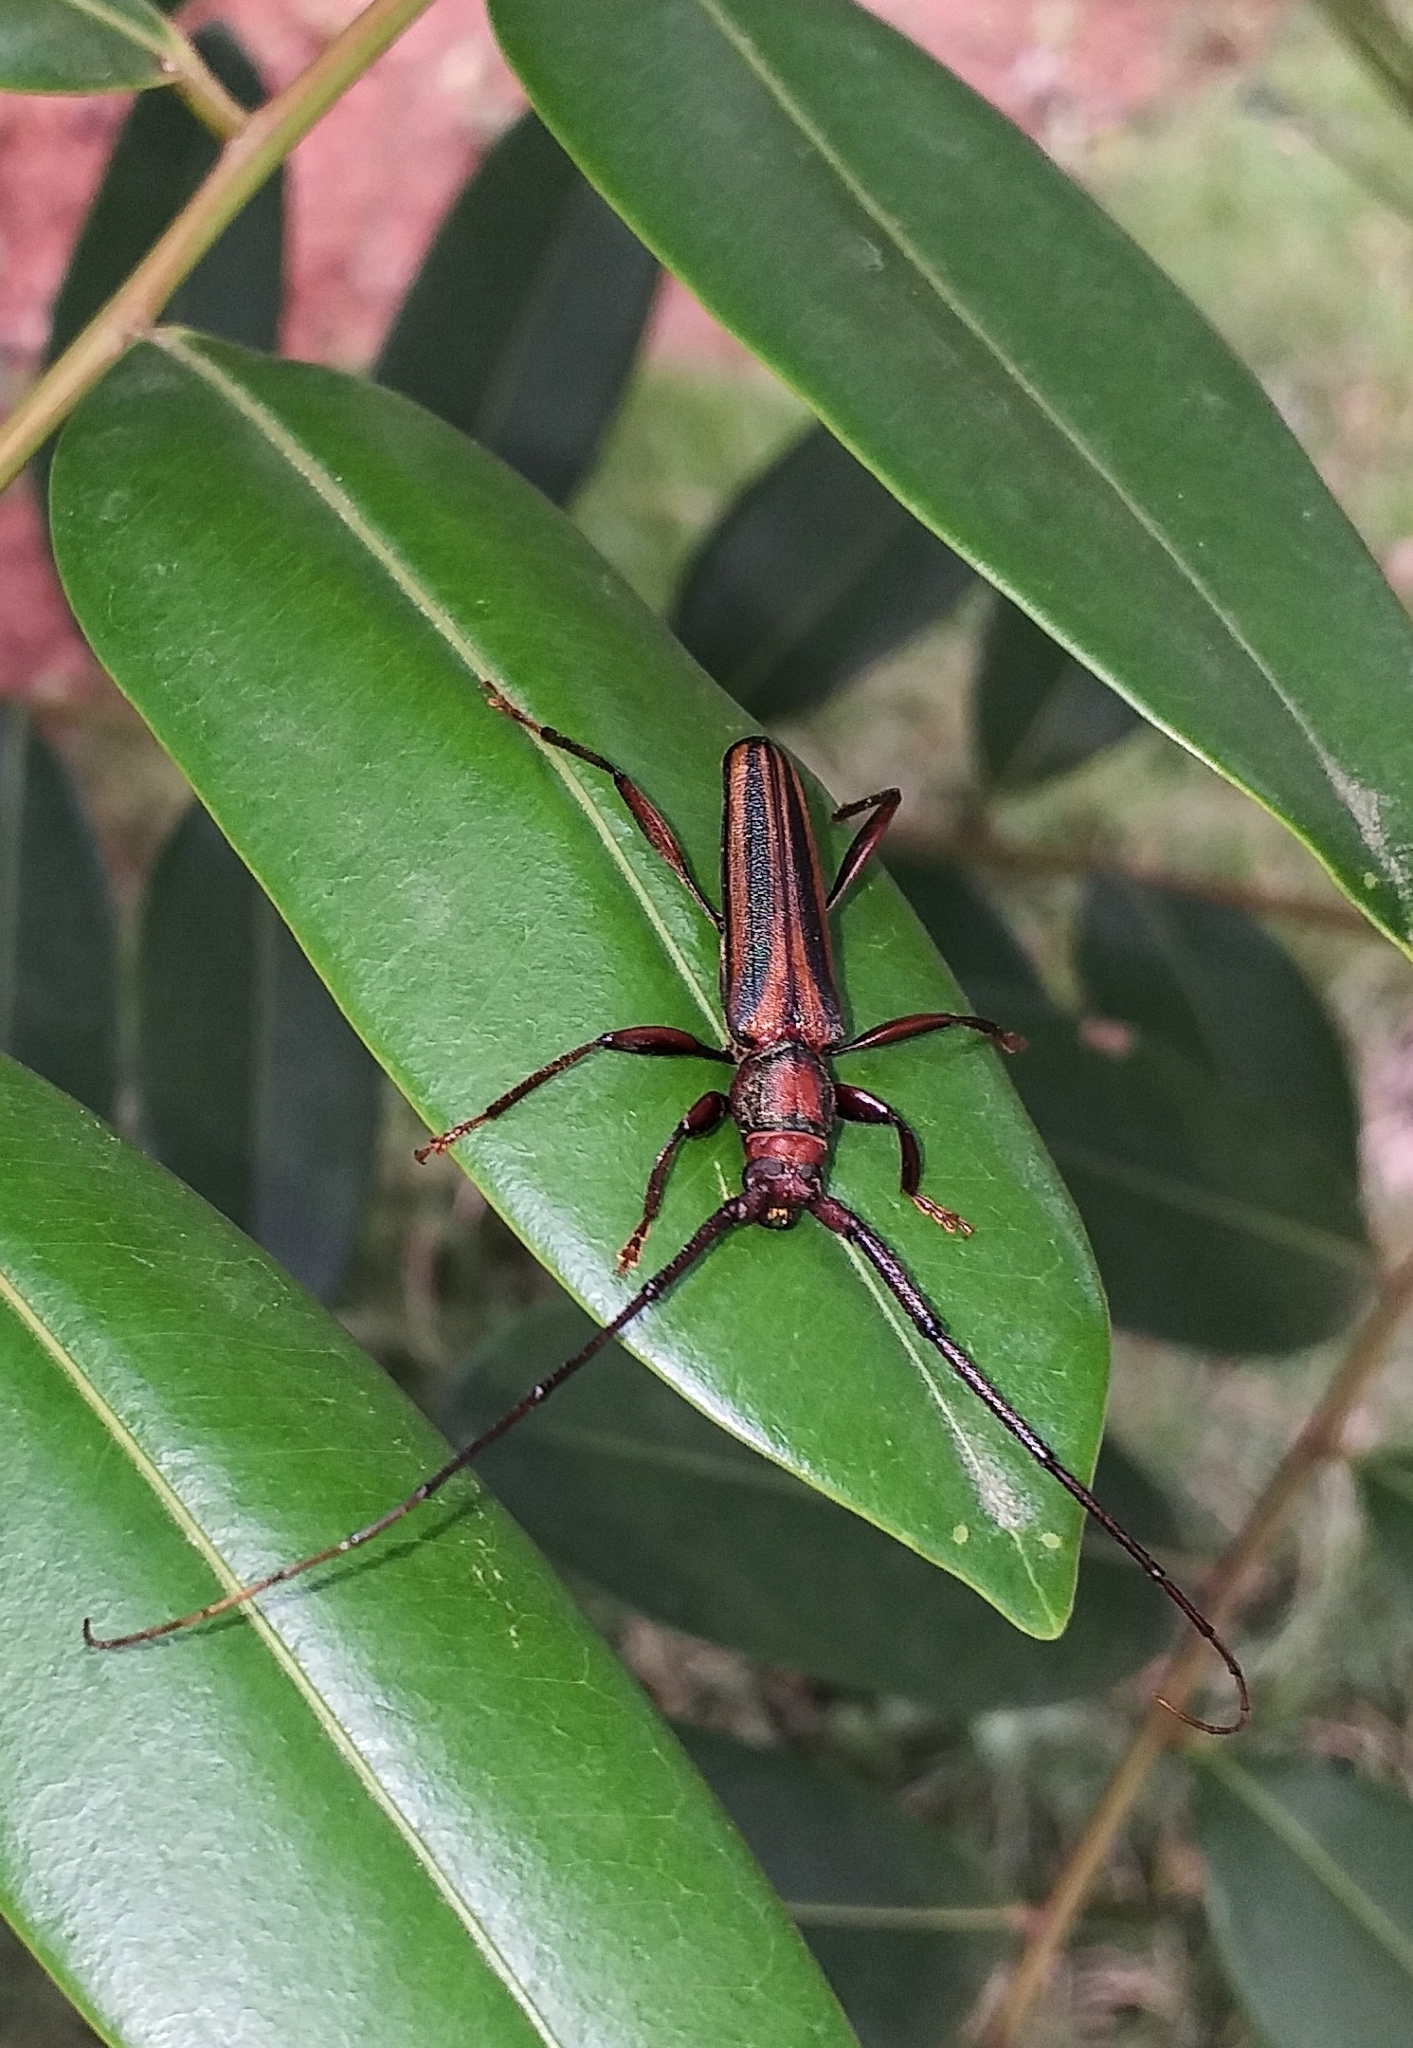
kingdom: Animalia
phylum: Arthropoda
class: Insecta
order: Coleoptera
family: Cerambycidae
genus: Xystrocera
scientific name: Xystrocera globosa
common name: Peach-tree longhorn
